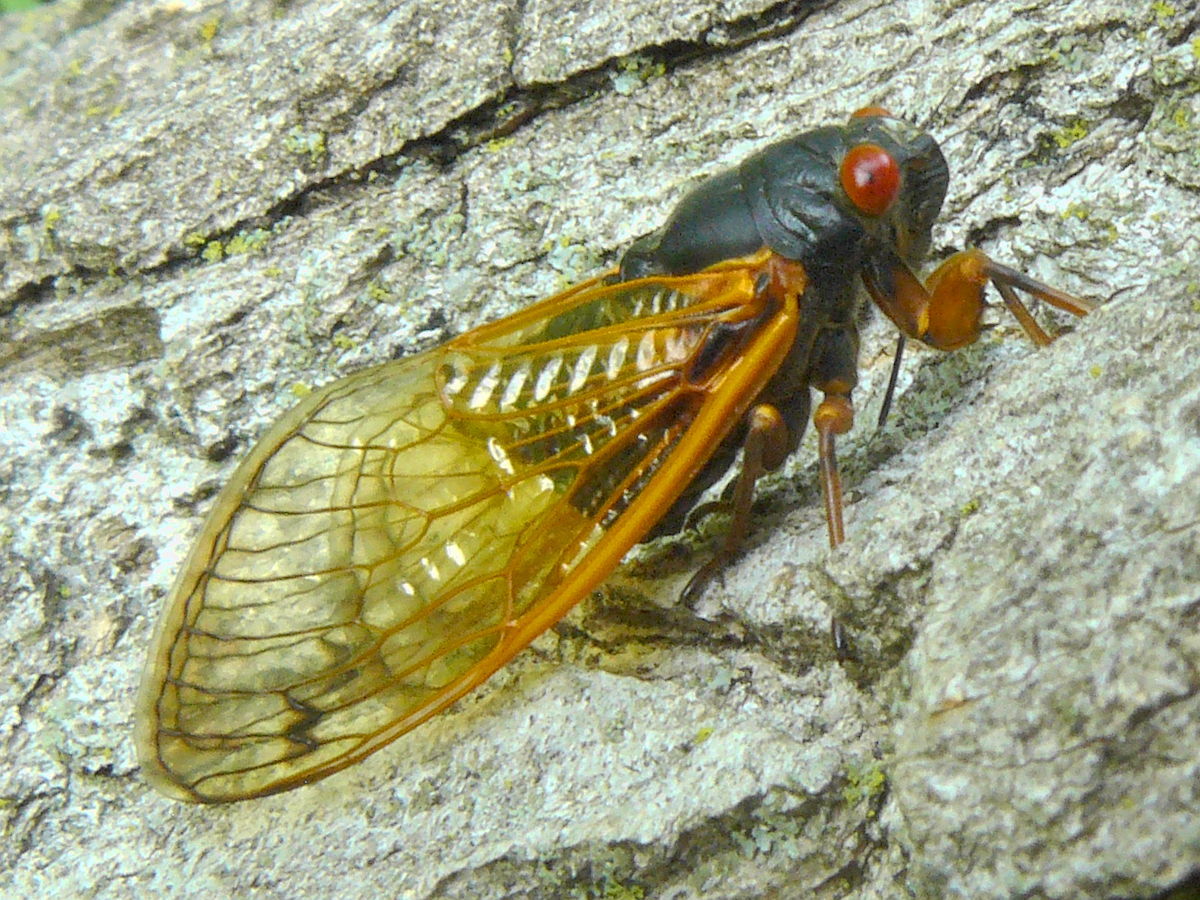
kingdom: Animalia
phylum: Arthropoda
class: Insecta
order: Hemiptera
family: Cicadidae
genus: Magicicada
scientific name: Magicicada cassini
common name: Cassin's 17-year cicada
